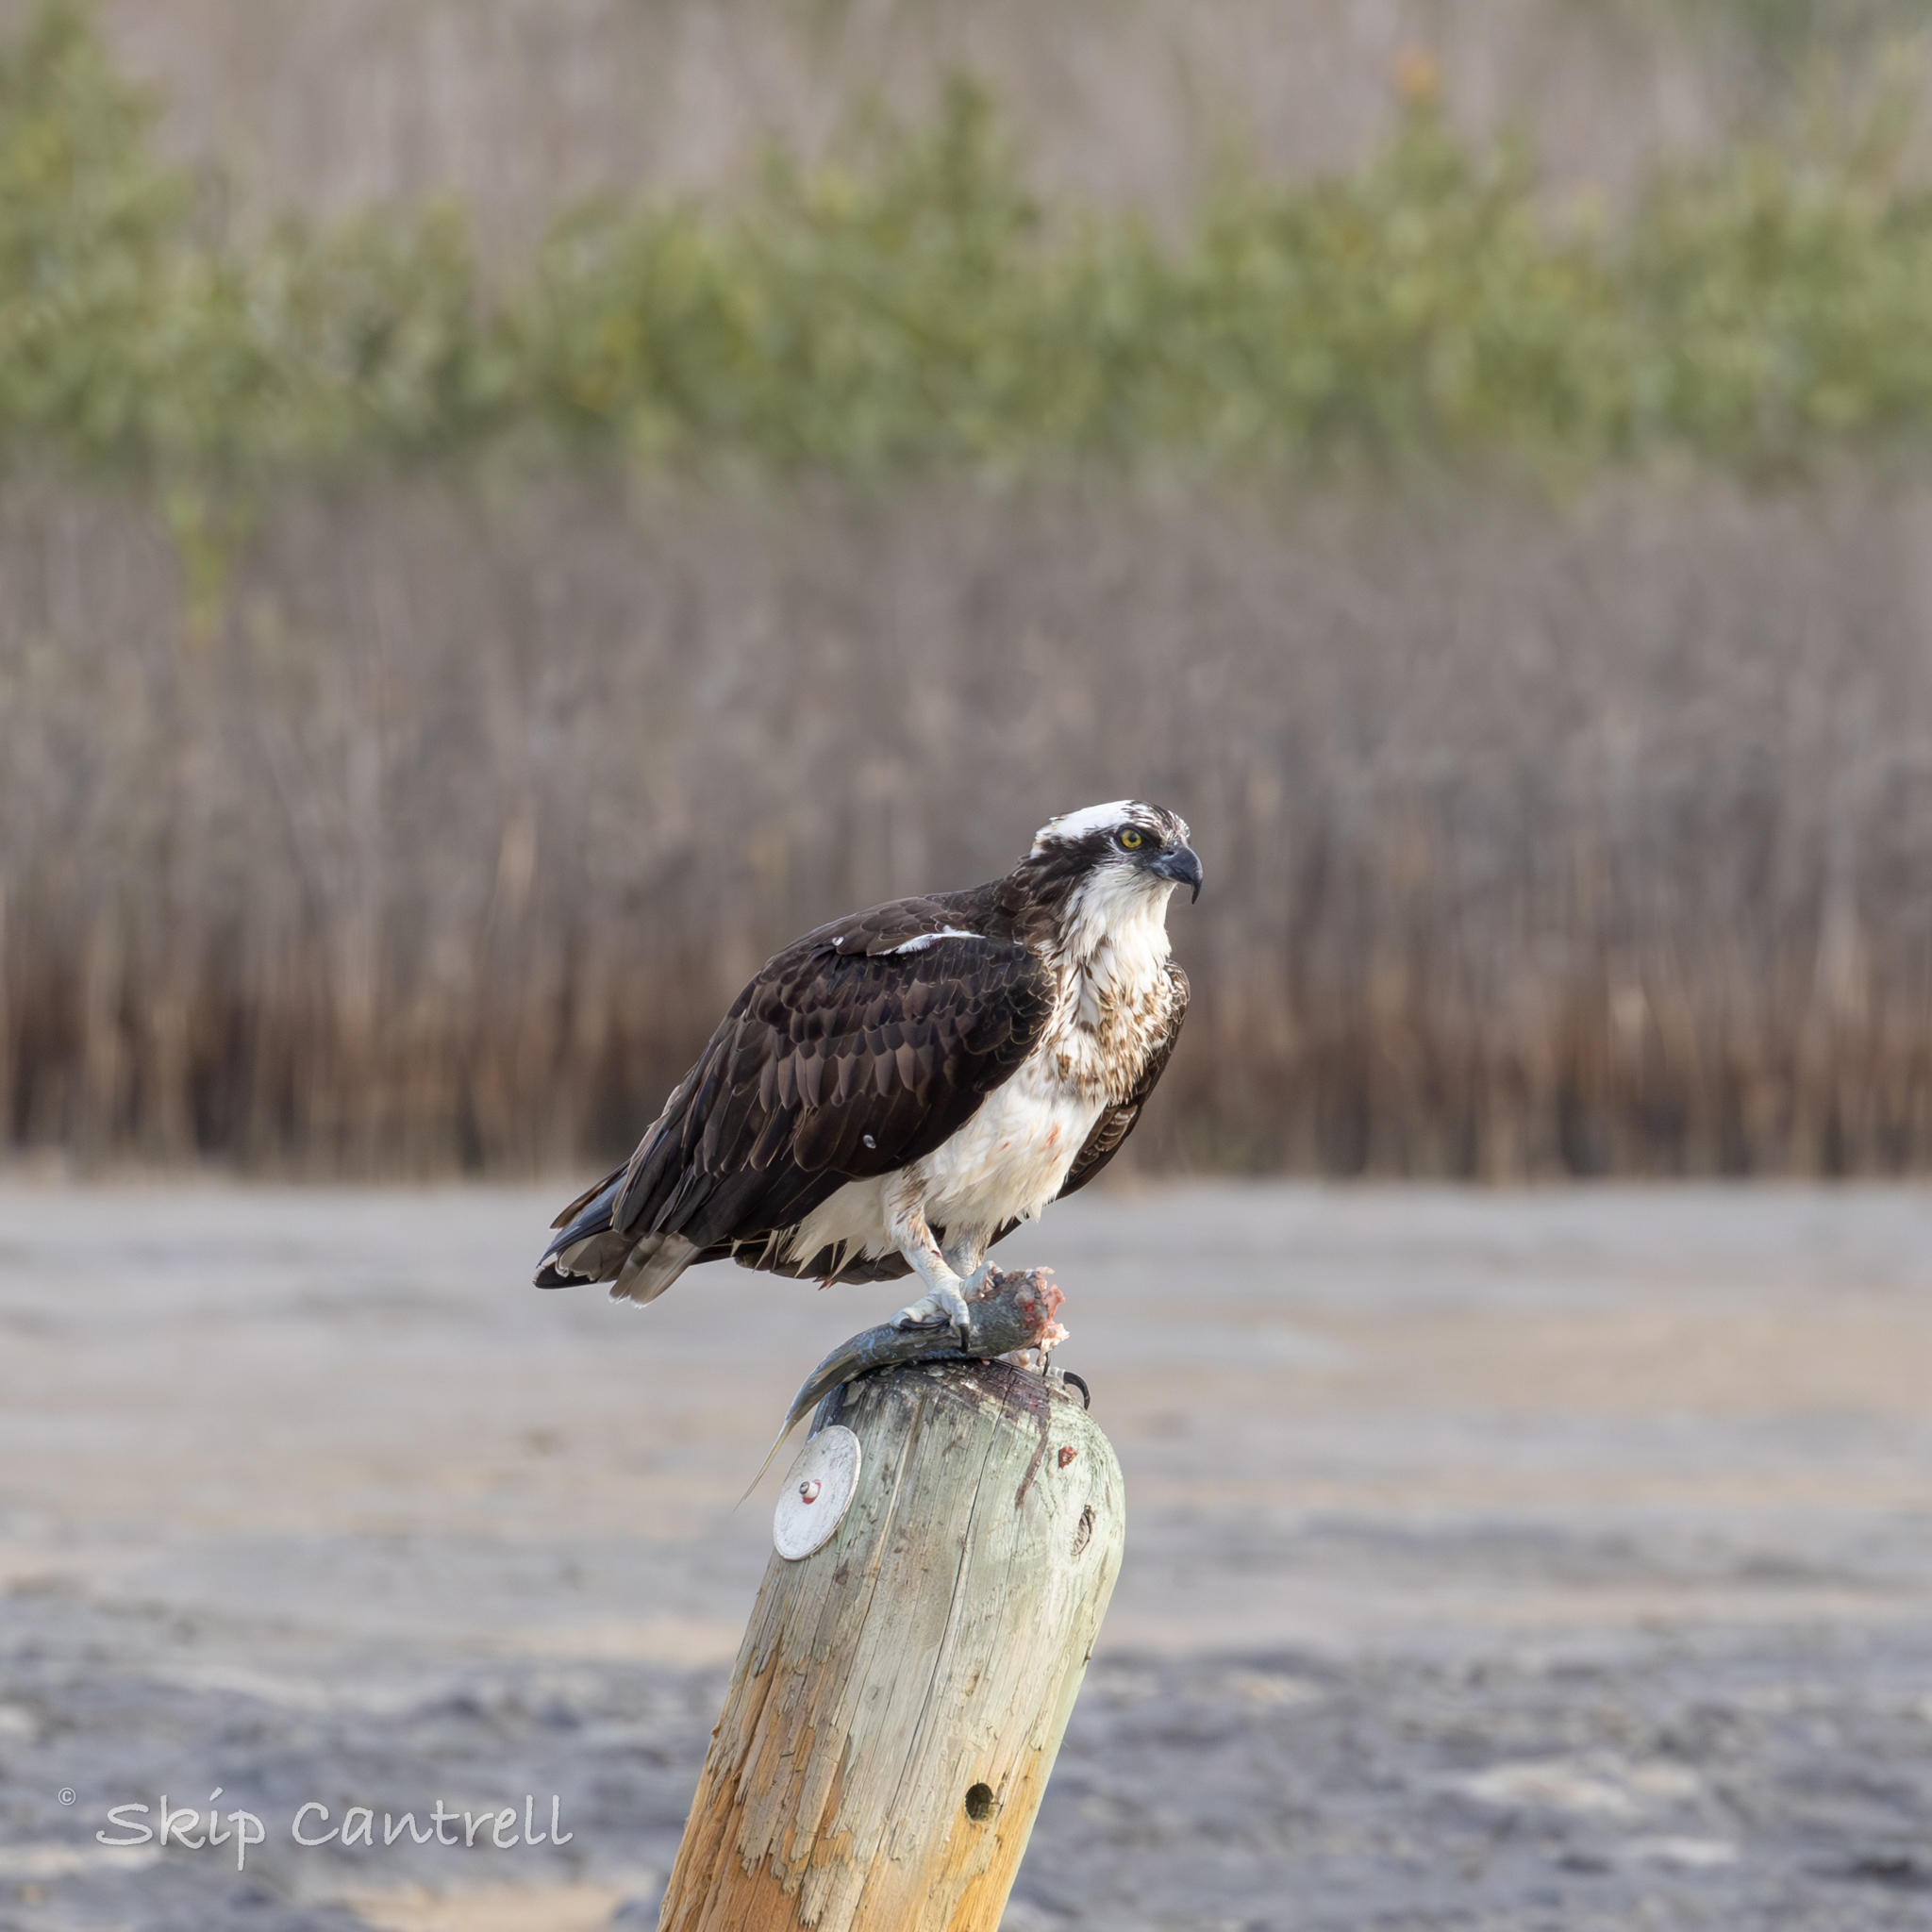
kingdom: Animalia
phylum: Chordata
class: Aves
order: Accipitriformes
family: Pandionidae
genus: Pandion
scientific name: Pandion haliaetus
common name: Osprey
